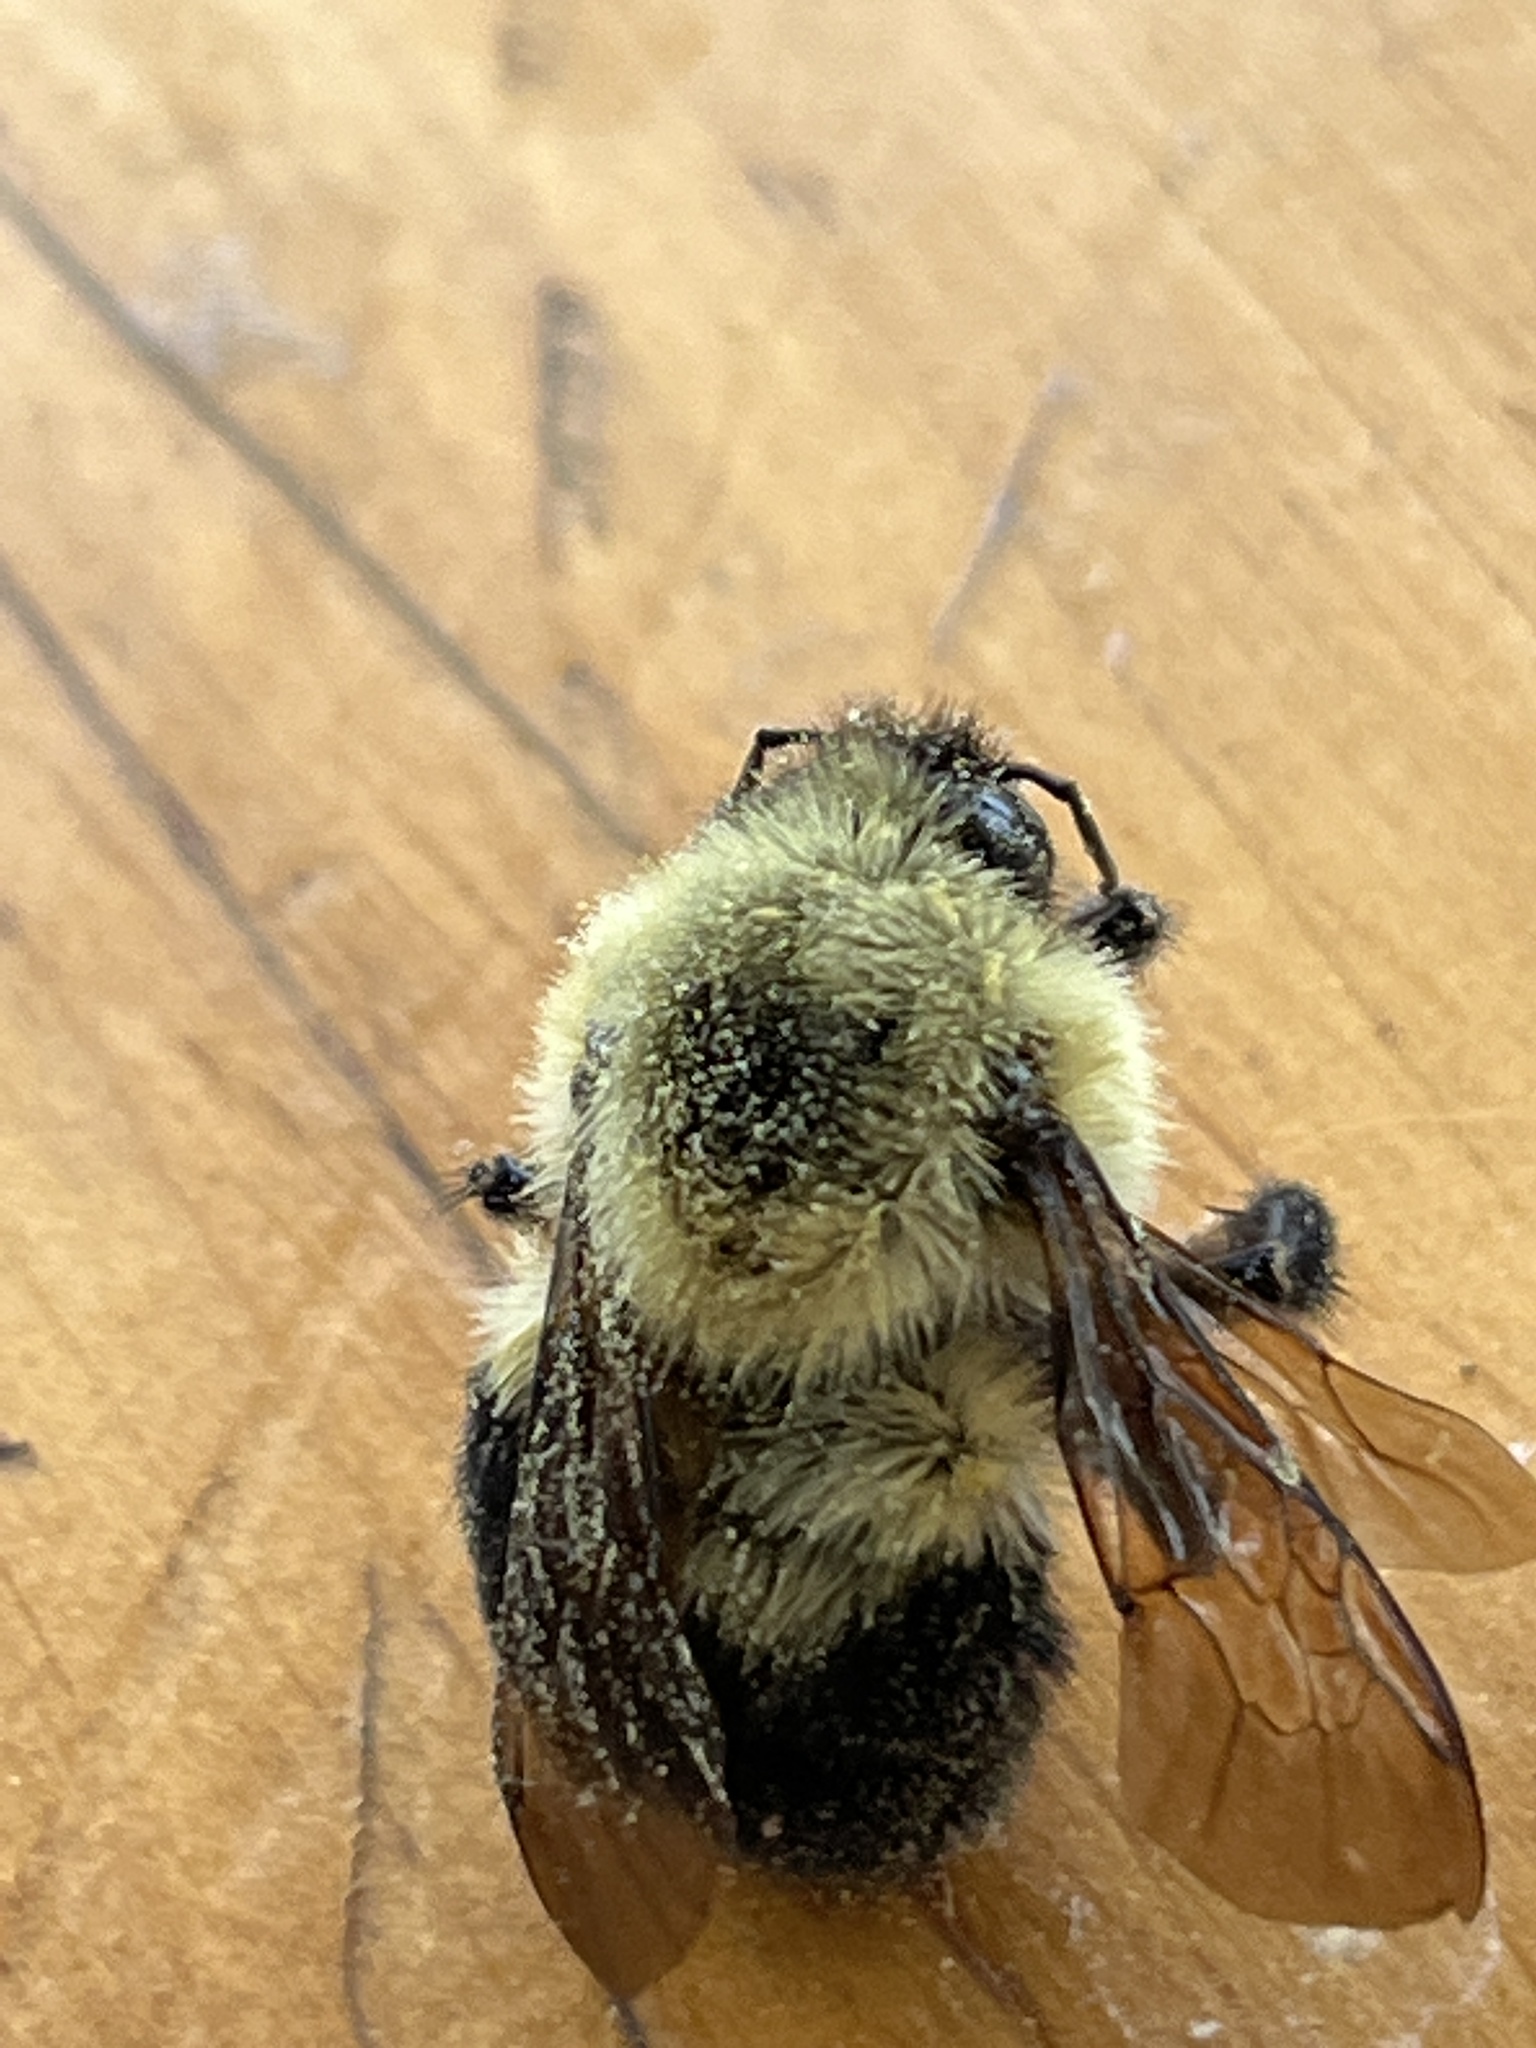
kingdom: Animalia
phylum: Arthropoda
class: Insecta
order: Hymenoptera
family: Apidae
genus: Bombus
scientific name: Bombus bimaculatus
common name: Two-spotted bumble bee
